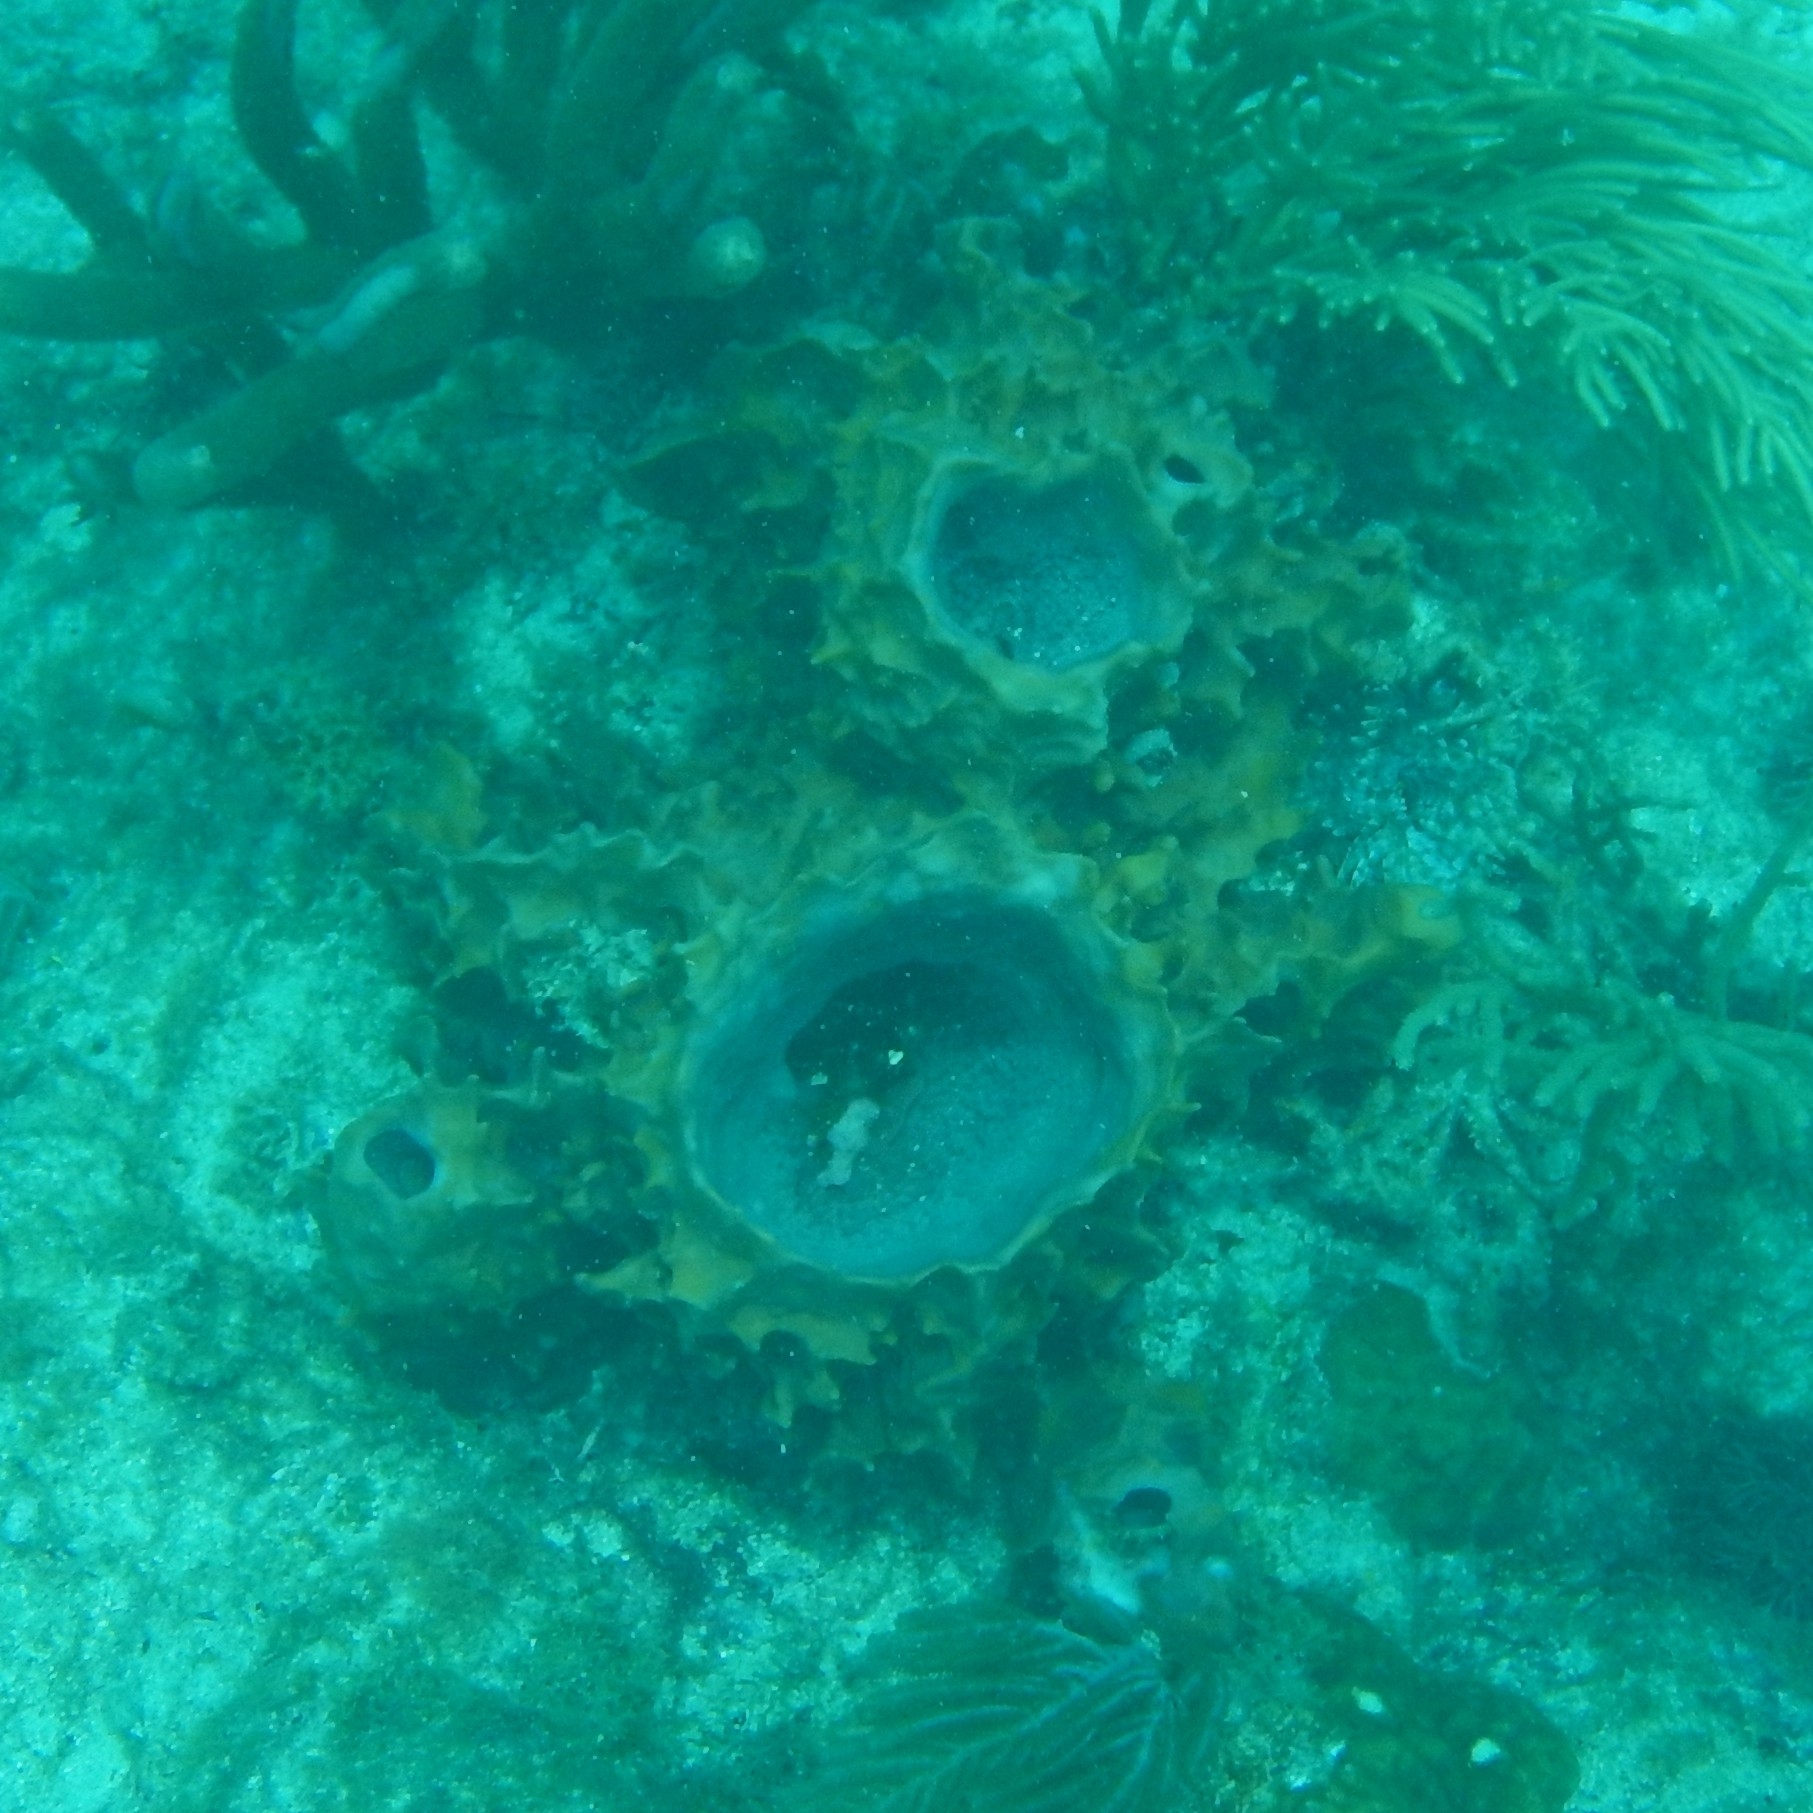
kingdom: Animalia
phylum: Porifera
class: Demospongiae
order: Haplosclerida
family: Petrosiidae
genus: Xestospongia
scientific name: Xestospongia muta
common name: Giant barrel sponge
